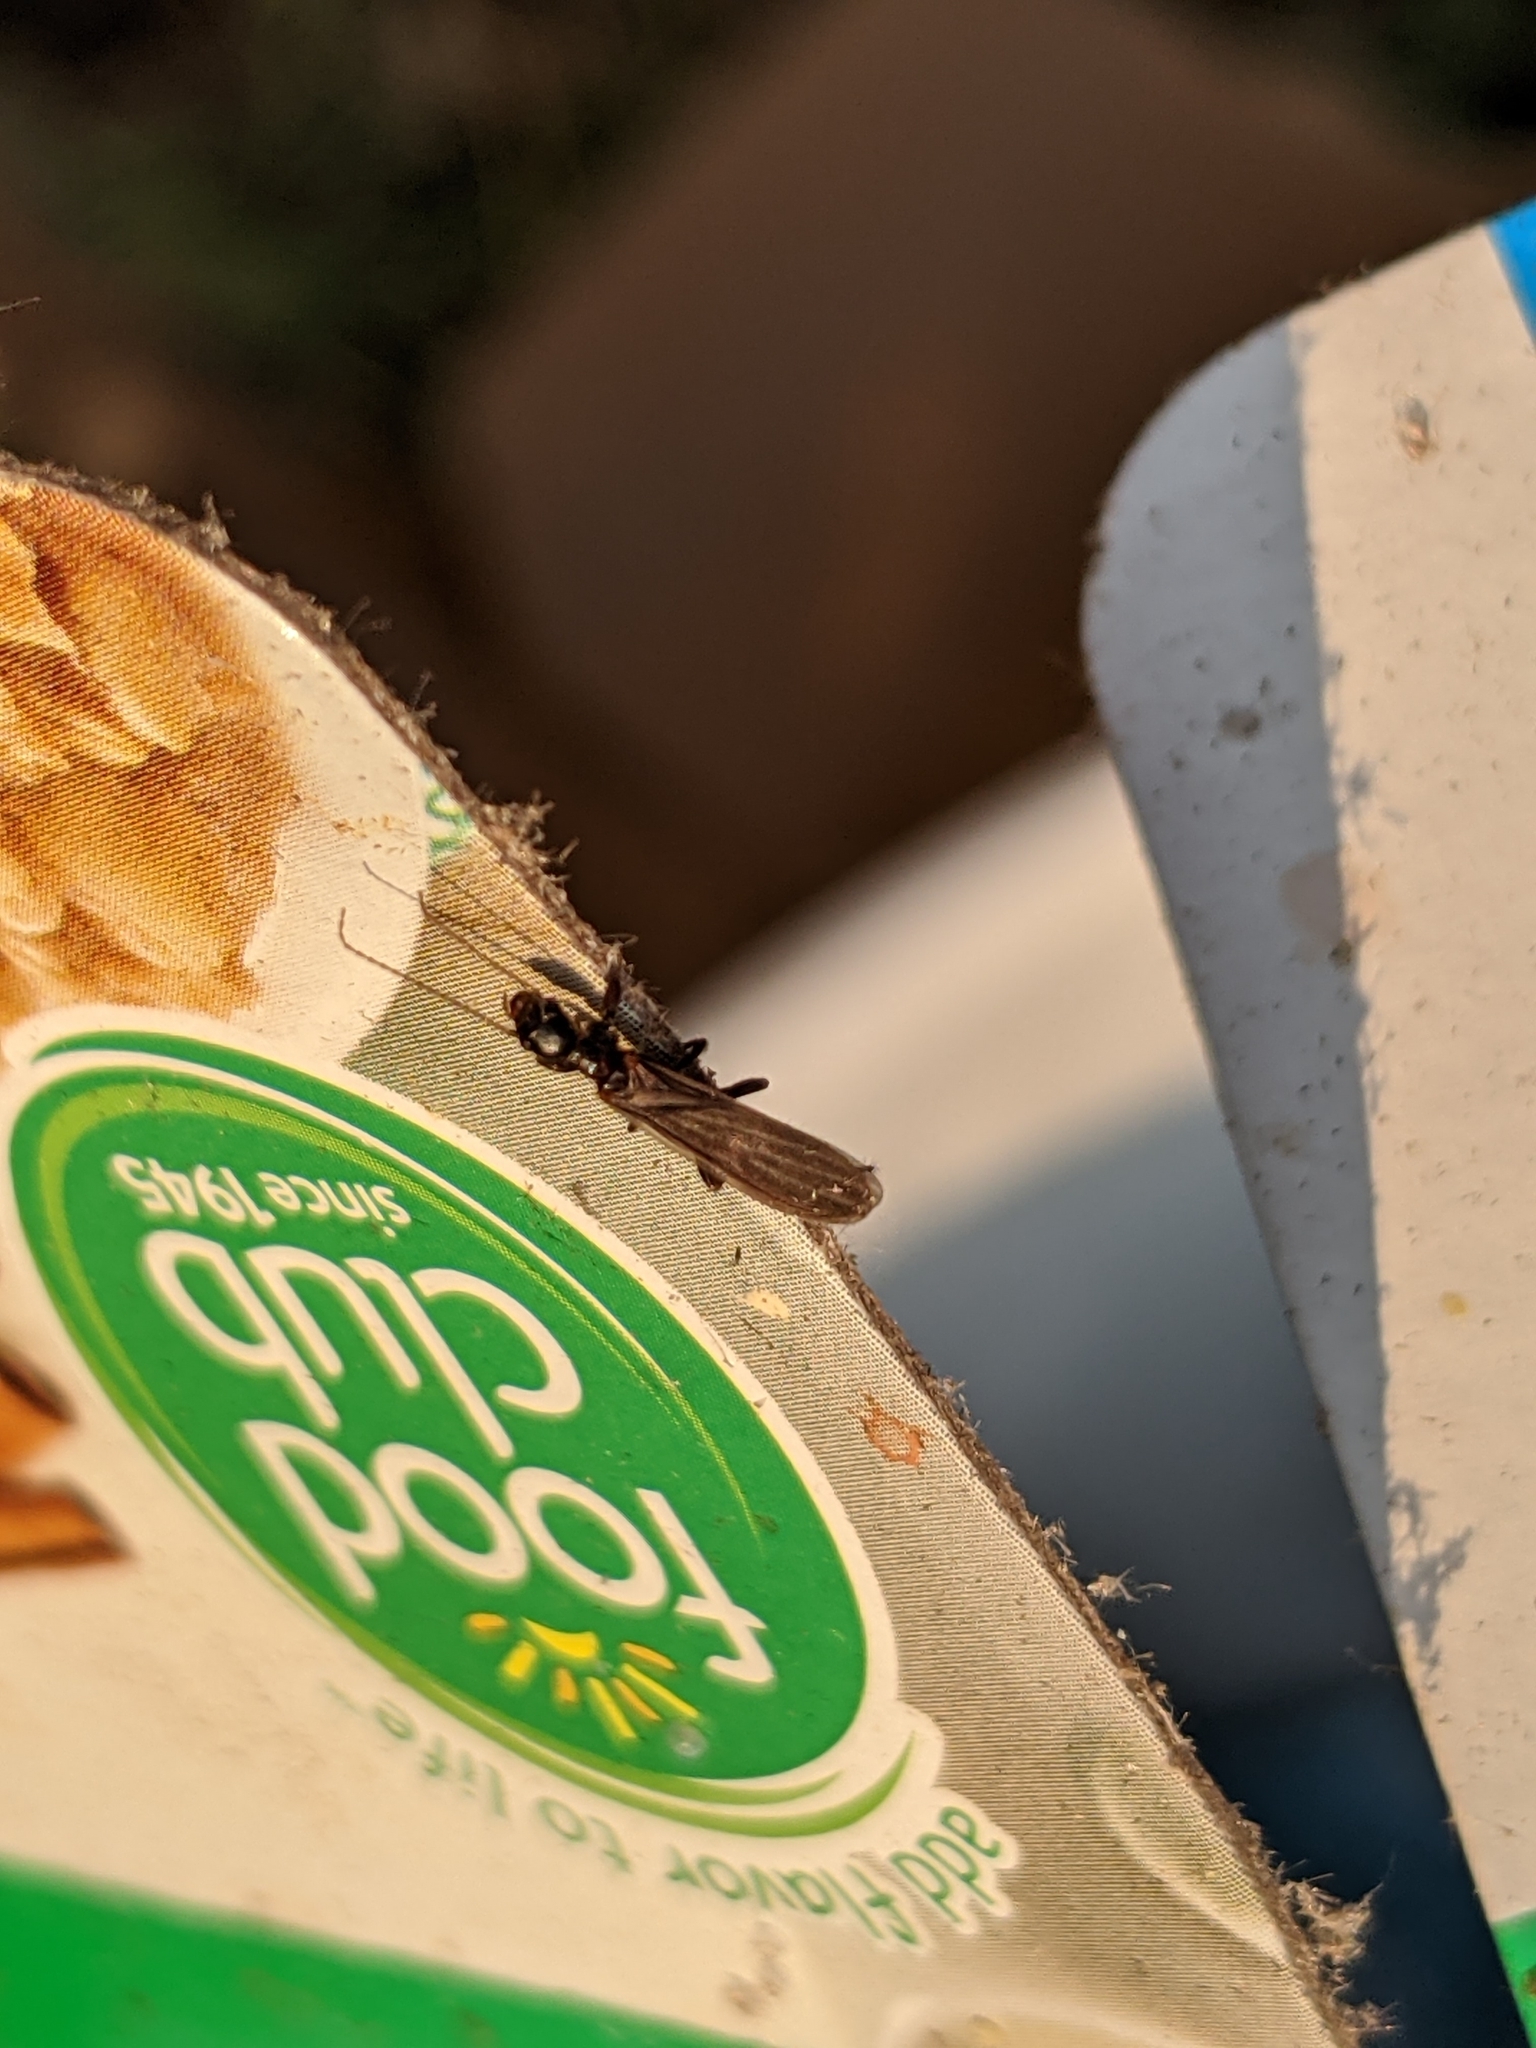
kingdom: Animalia
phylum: Arthropoda
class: Insecta
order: Embioptera
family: Oligotomidae
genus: Oligotoma
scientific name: Oligotoma nigra
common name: Black webspinner
